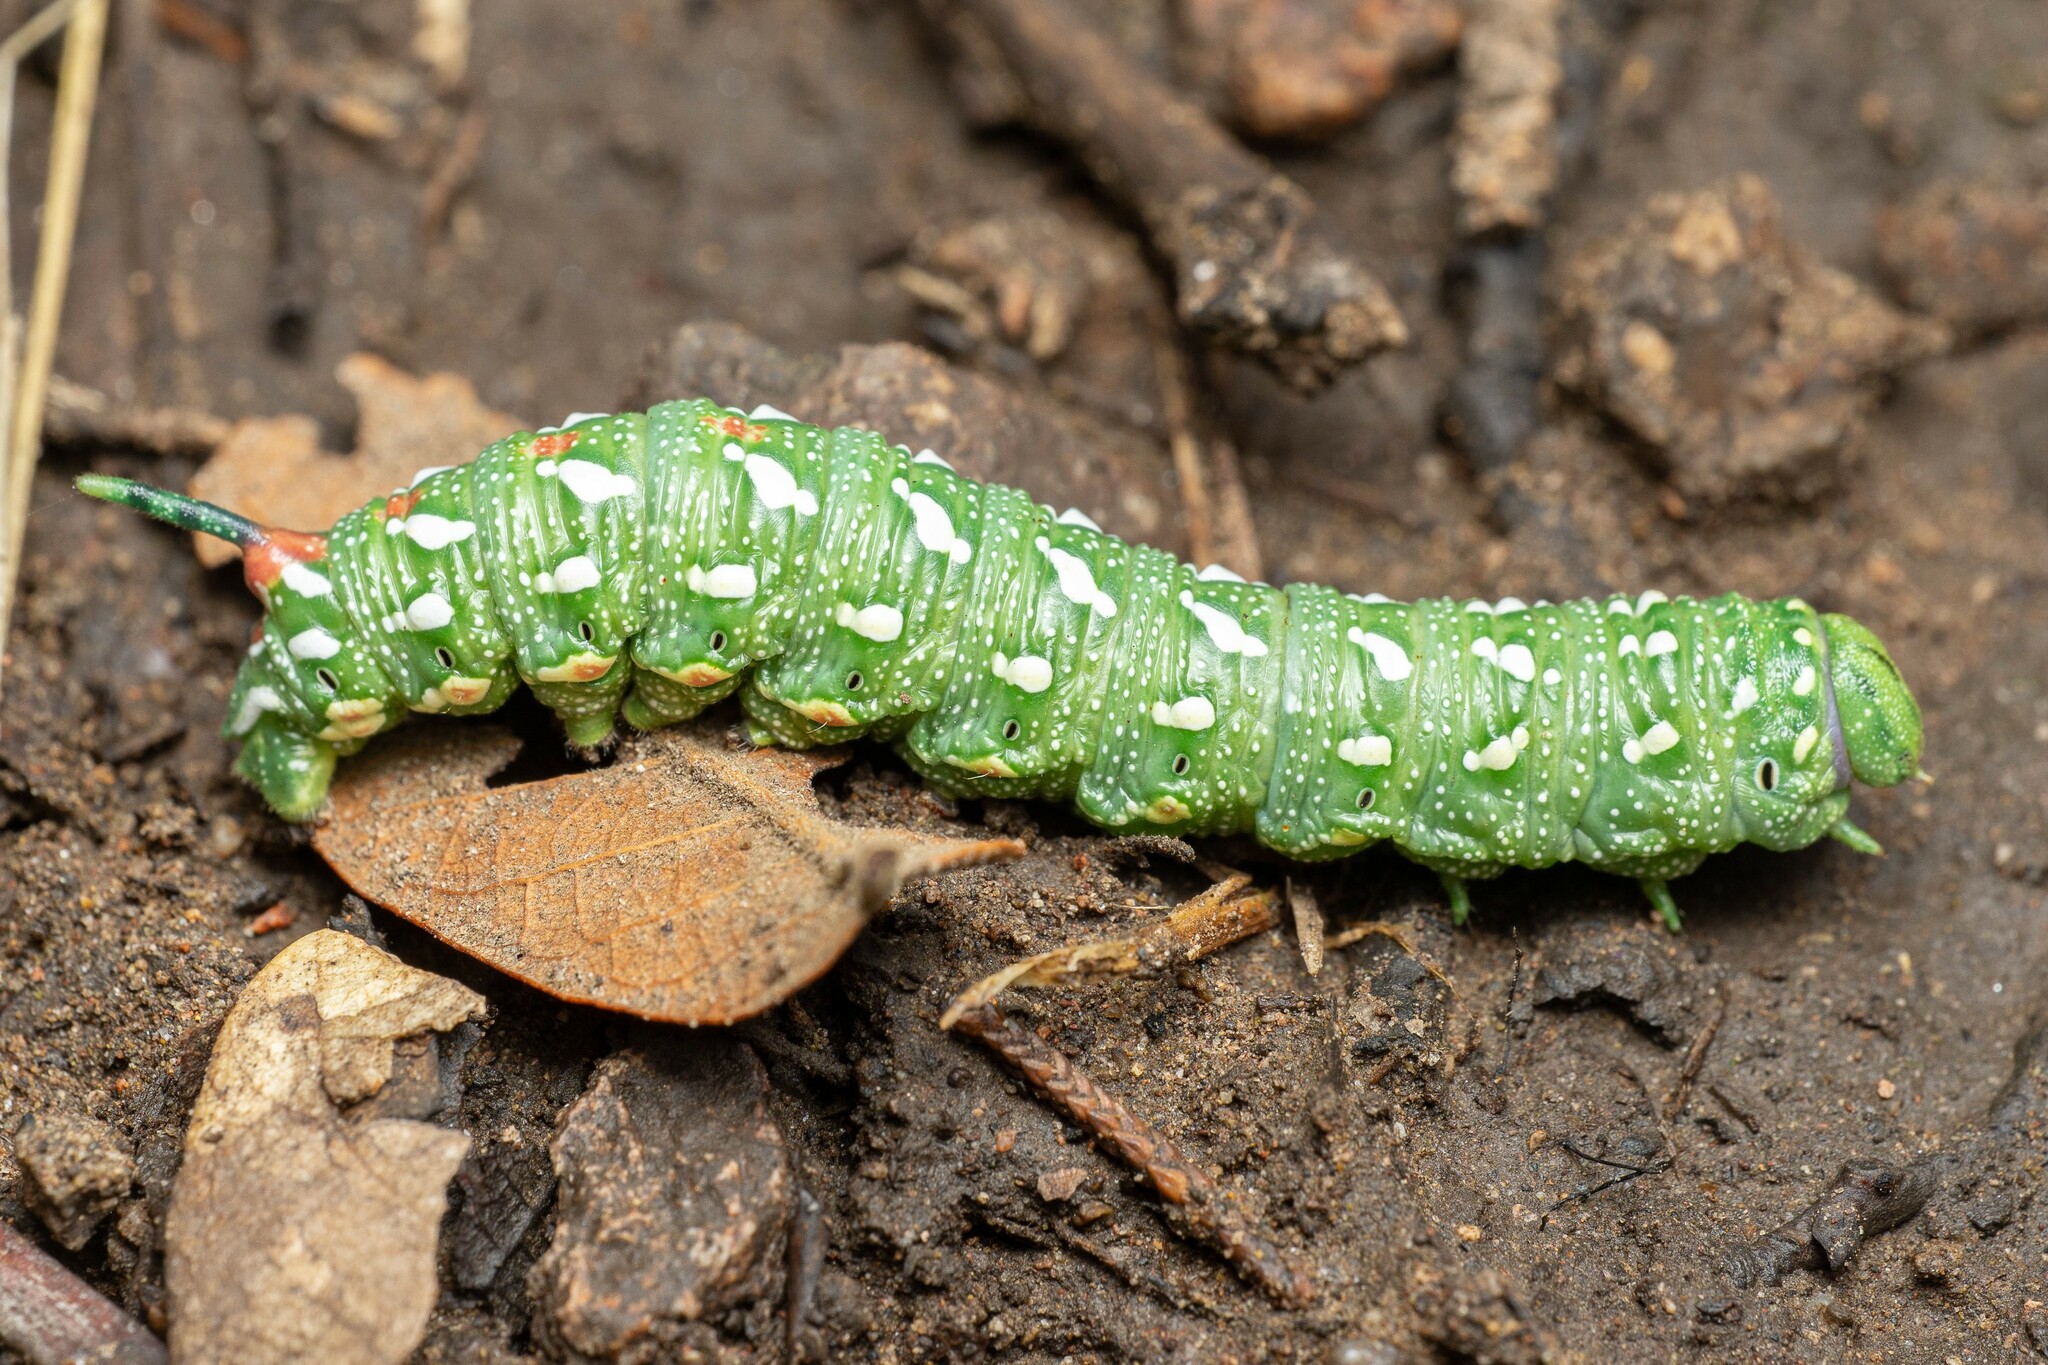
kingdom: Animalia
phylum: Arthropoda
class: Insecta
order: Lepidoptera
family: Sphingidae
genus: Sphinx
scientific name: Sphinx dollii
